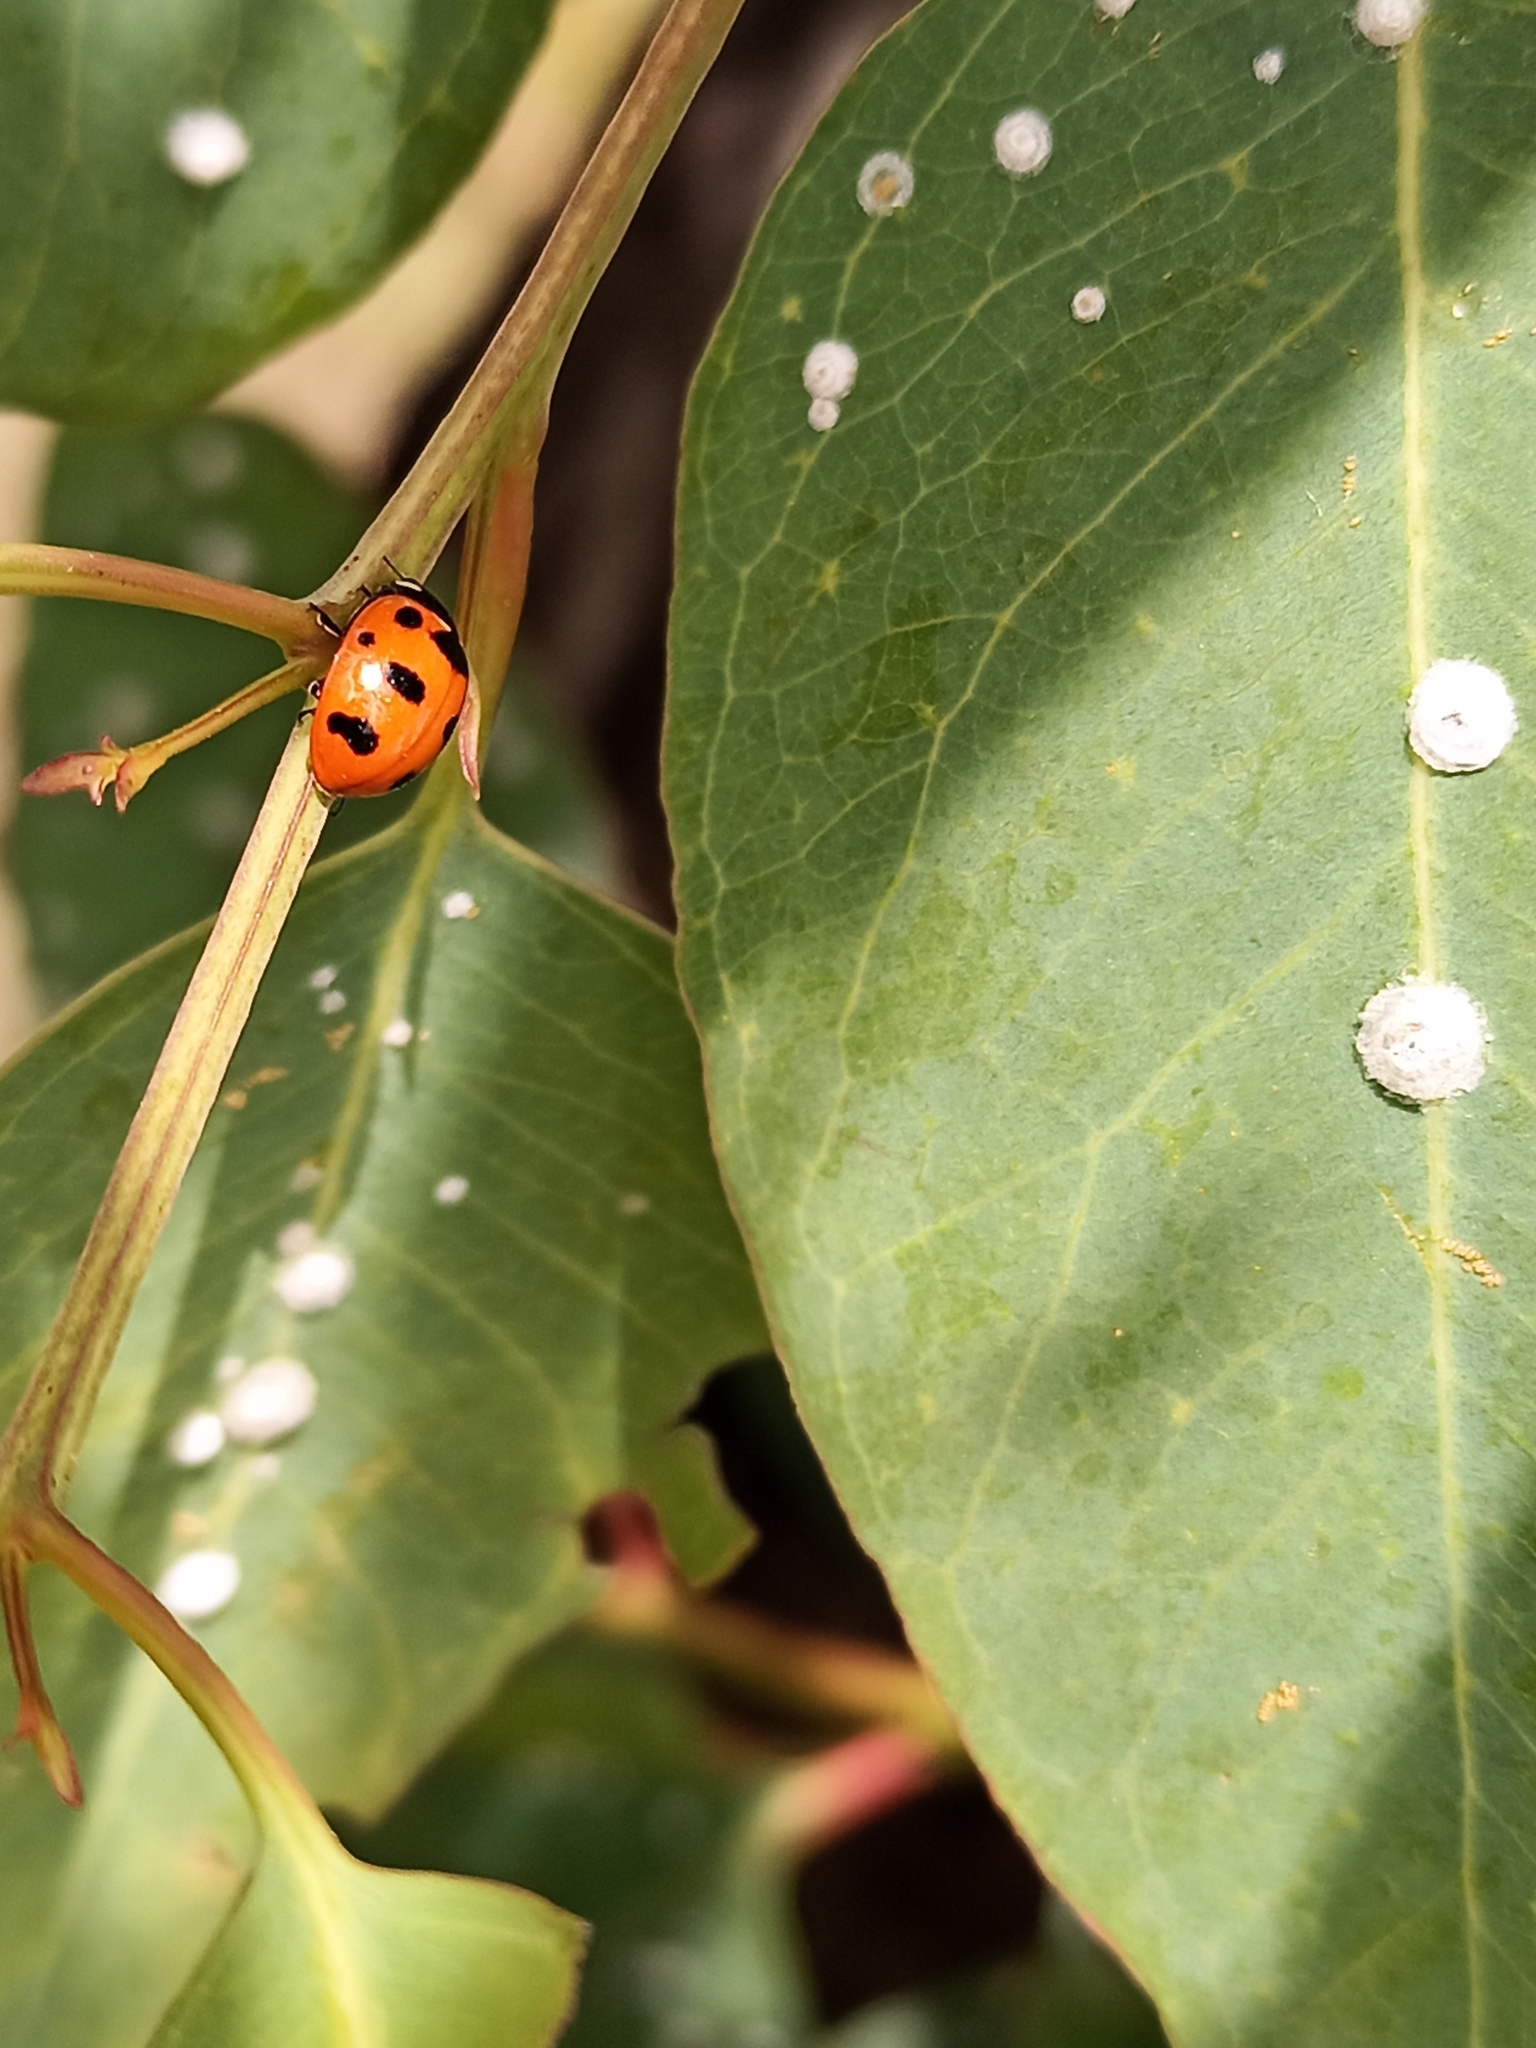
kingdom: Animalia
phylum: Arthropoda
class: Insecta
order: Coleoptera
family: Coccinellidae
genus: Coccinella
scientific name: Coccinella
